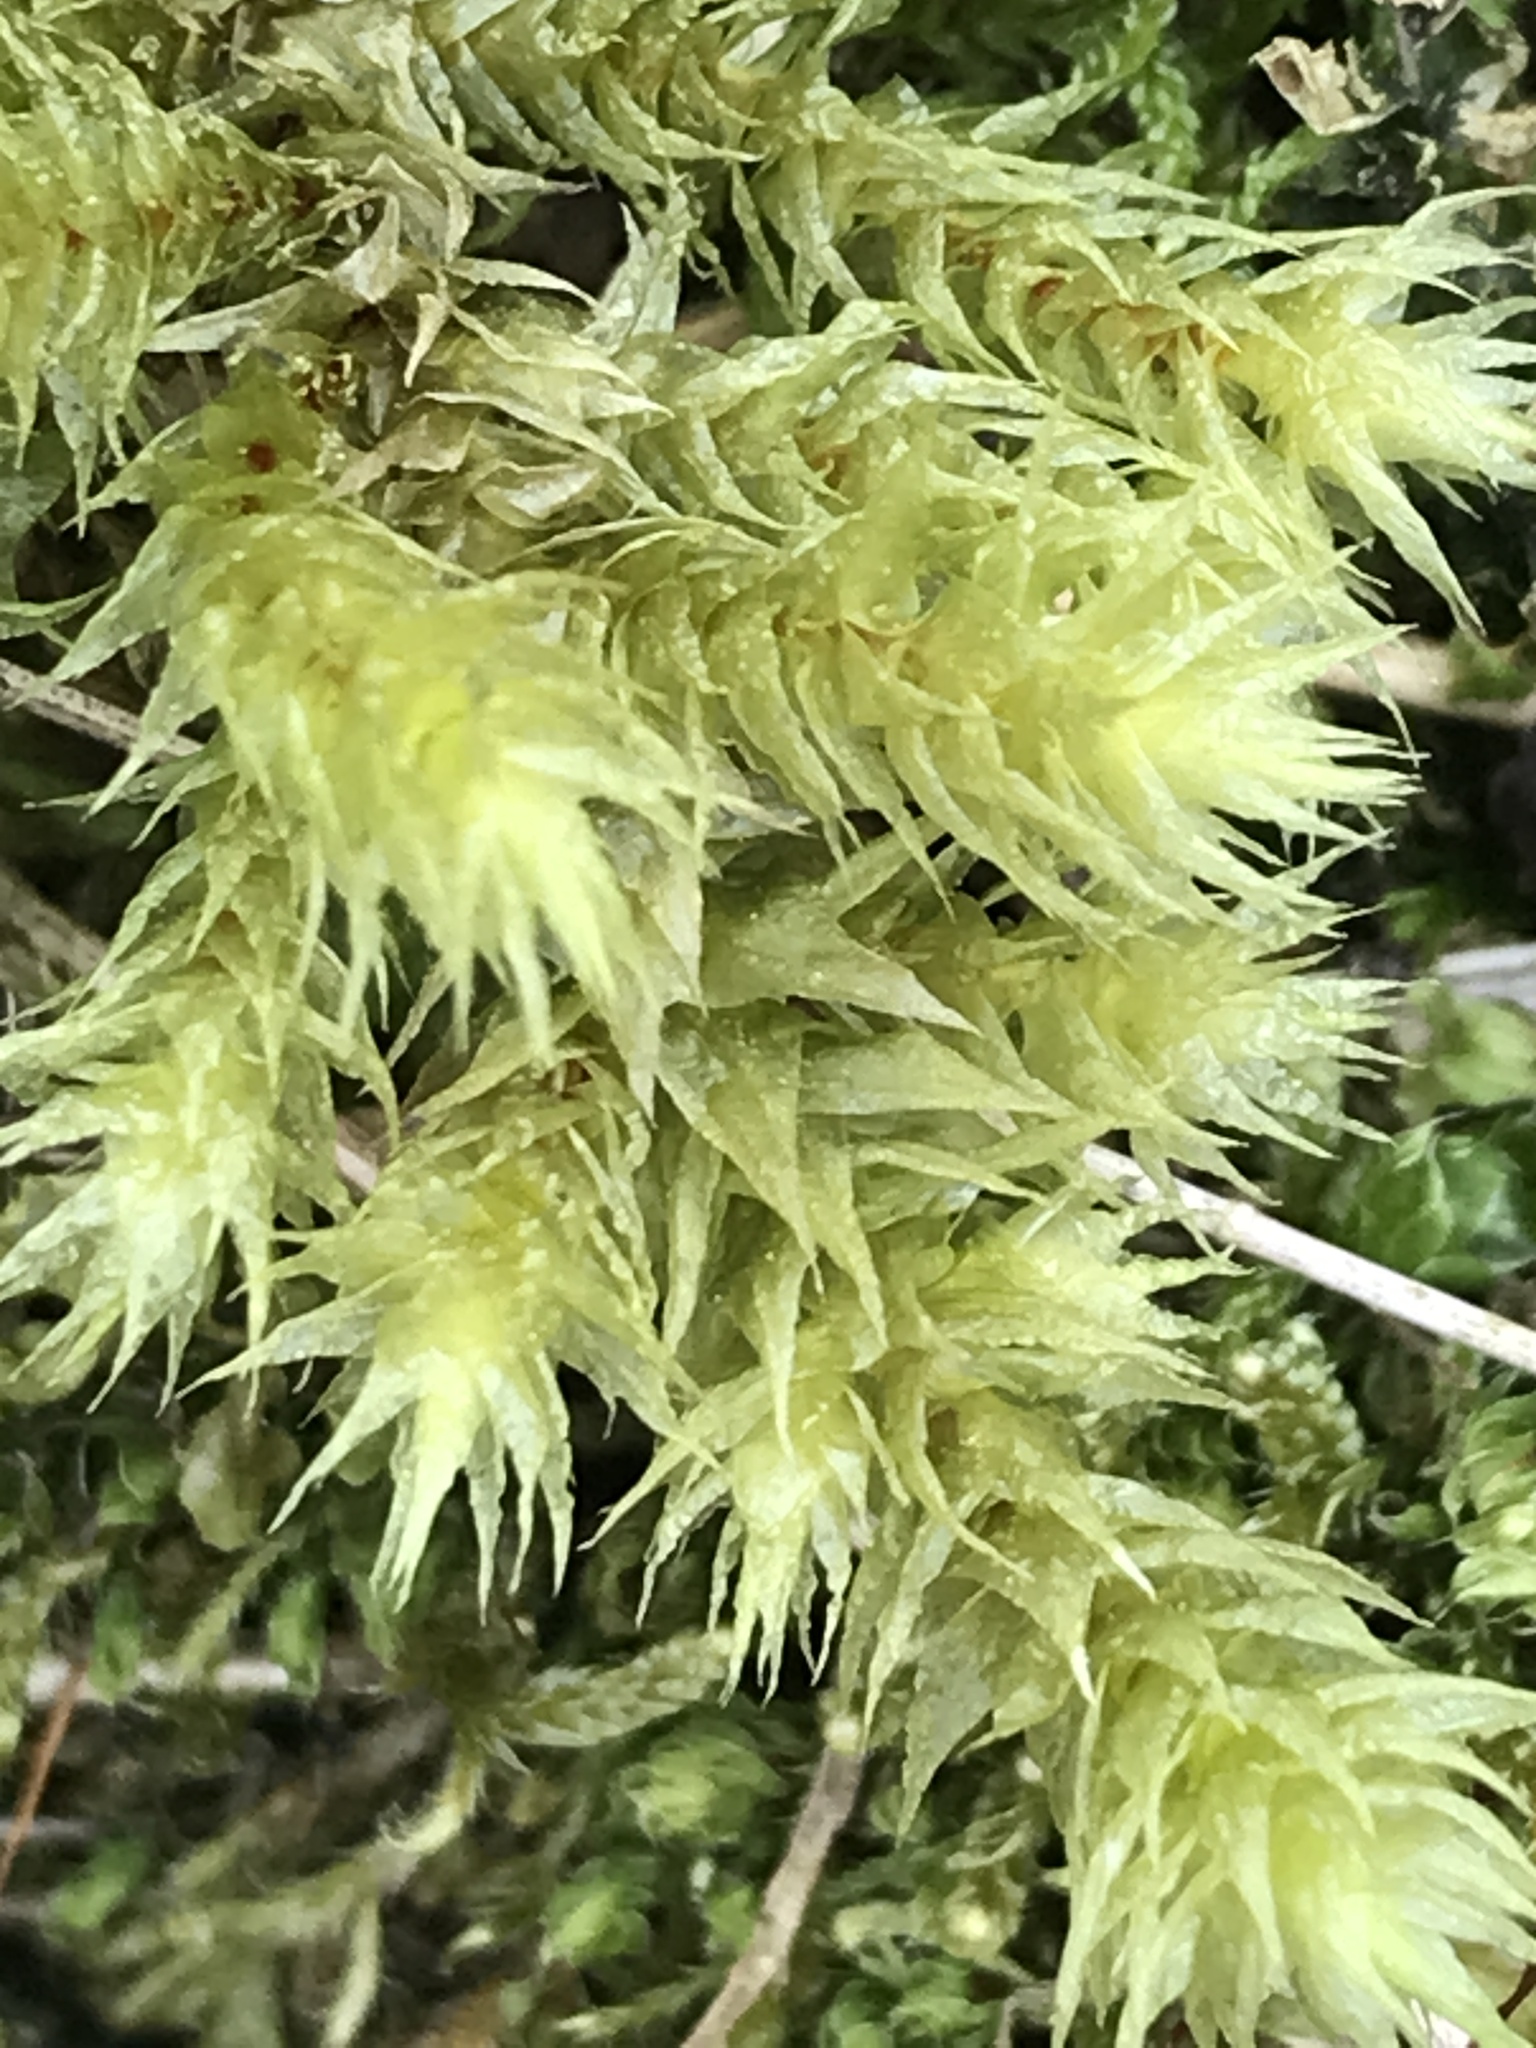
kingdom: Plantae
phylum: Bryophyta
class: Bryopsida
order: Hypnales
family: Hylocomiaceae
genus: Hylocomiadelphus
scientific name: Hylocomiadelphus triquetrus
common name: Rough goose neck moss
